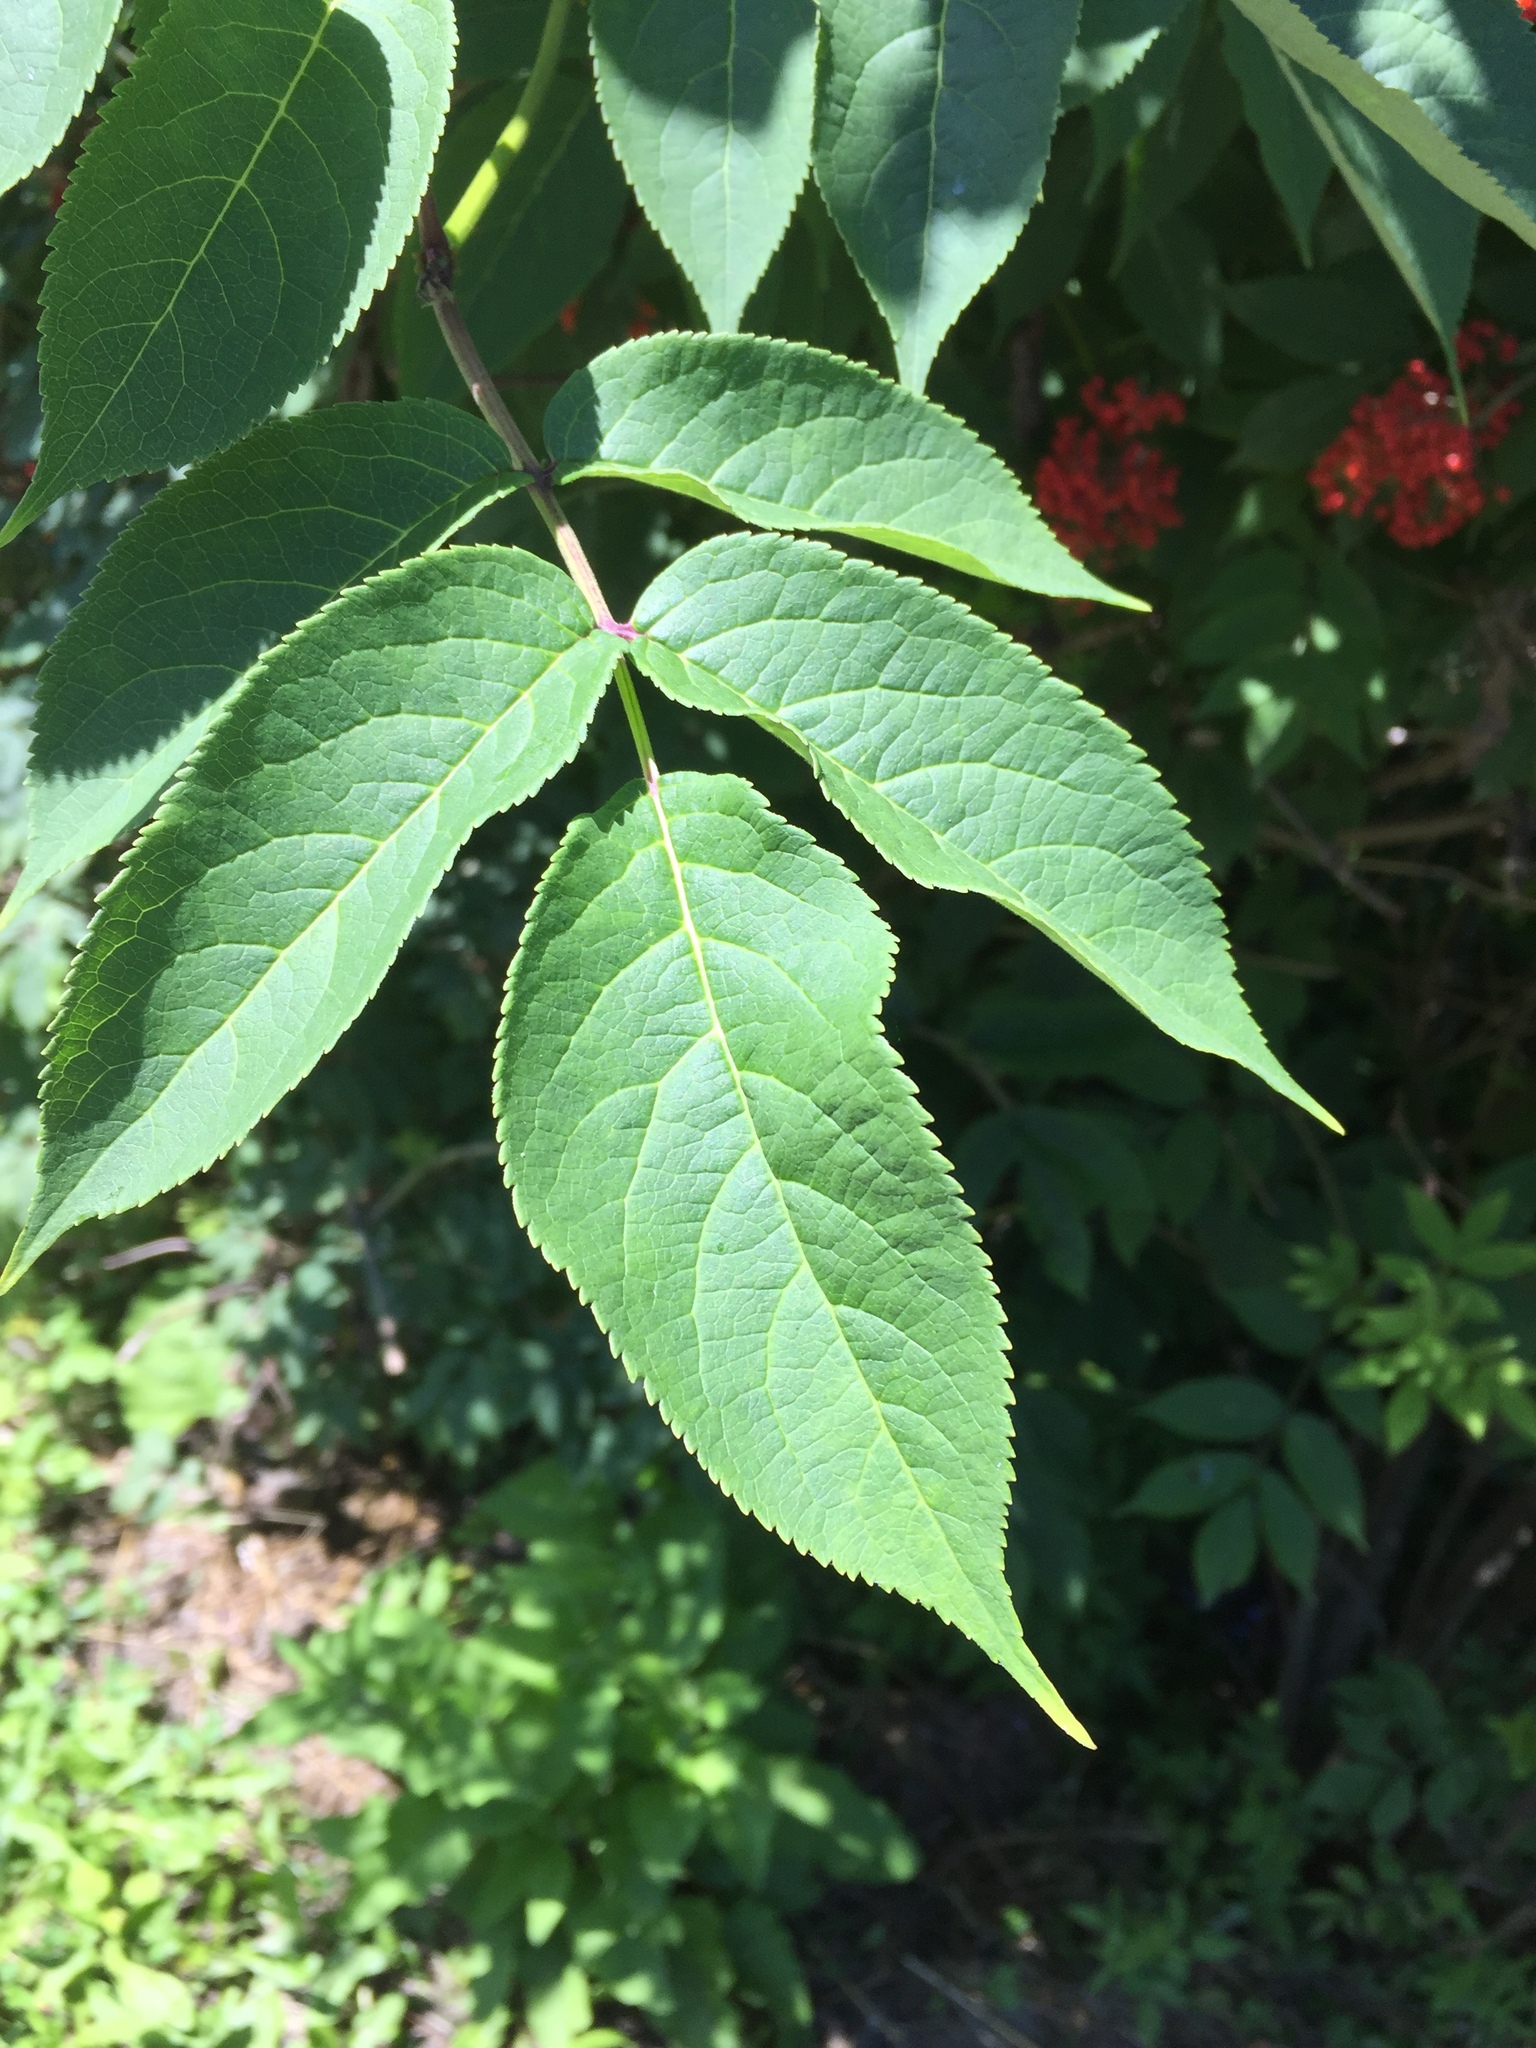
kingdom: Plantae
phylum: Tracheophyta
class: Magnoliopsida
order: Dipsacales
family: Viburnaceae
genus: Sambucus
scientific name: Sambucus racemosa
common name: Red-berried elder
